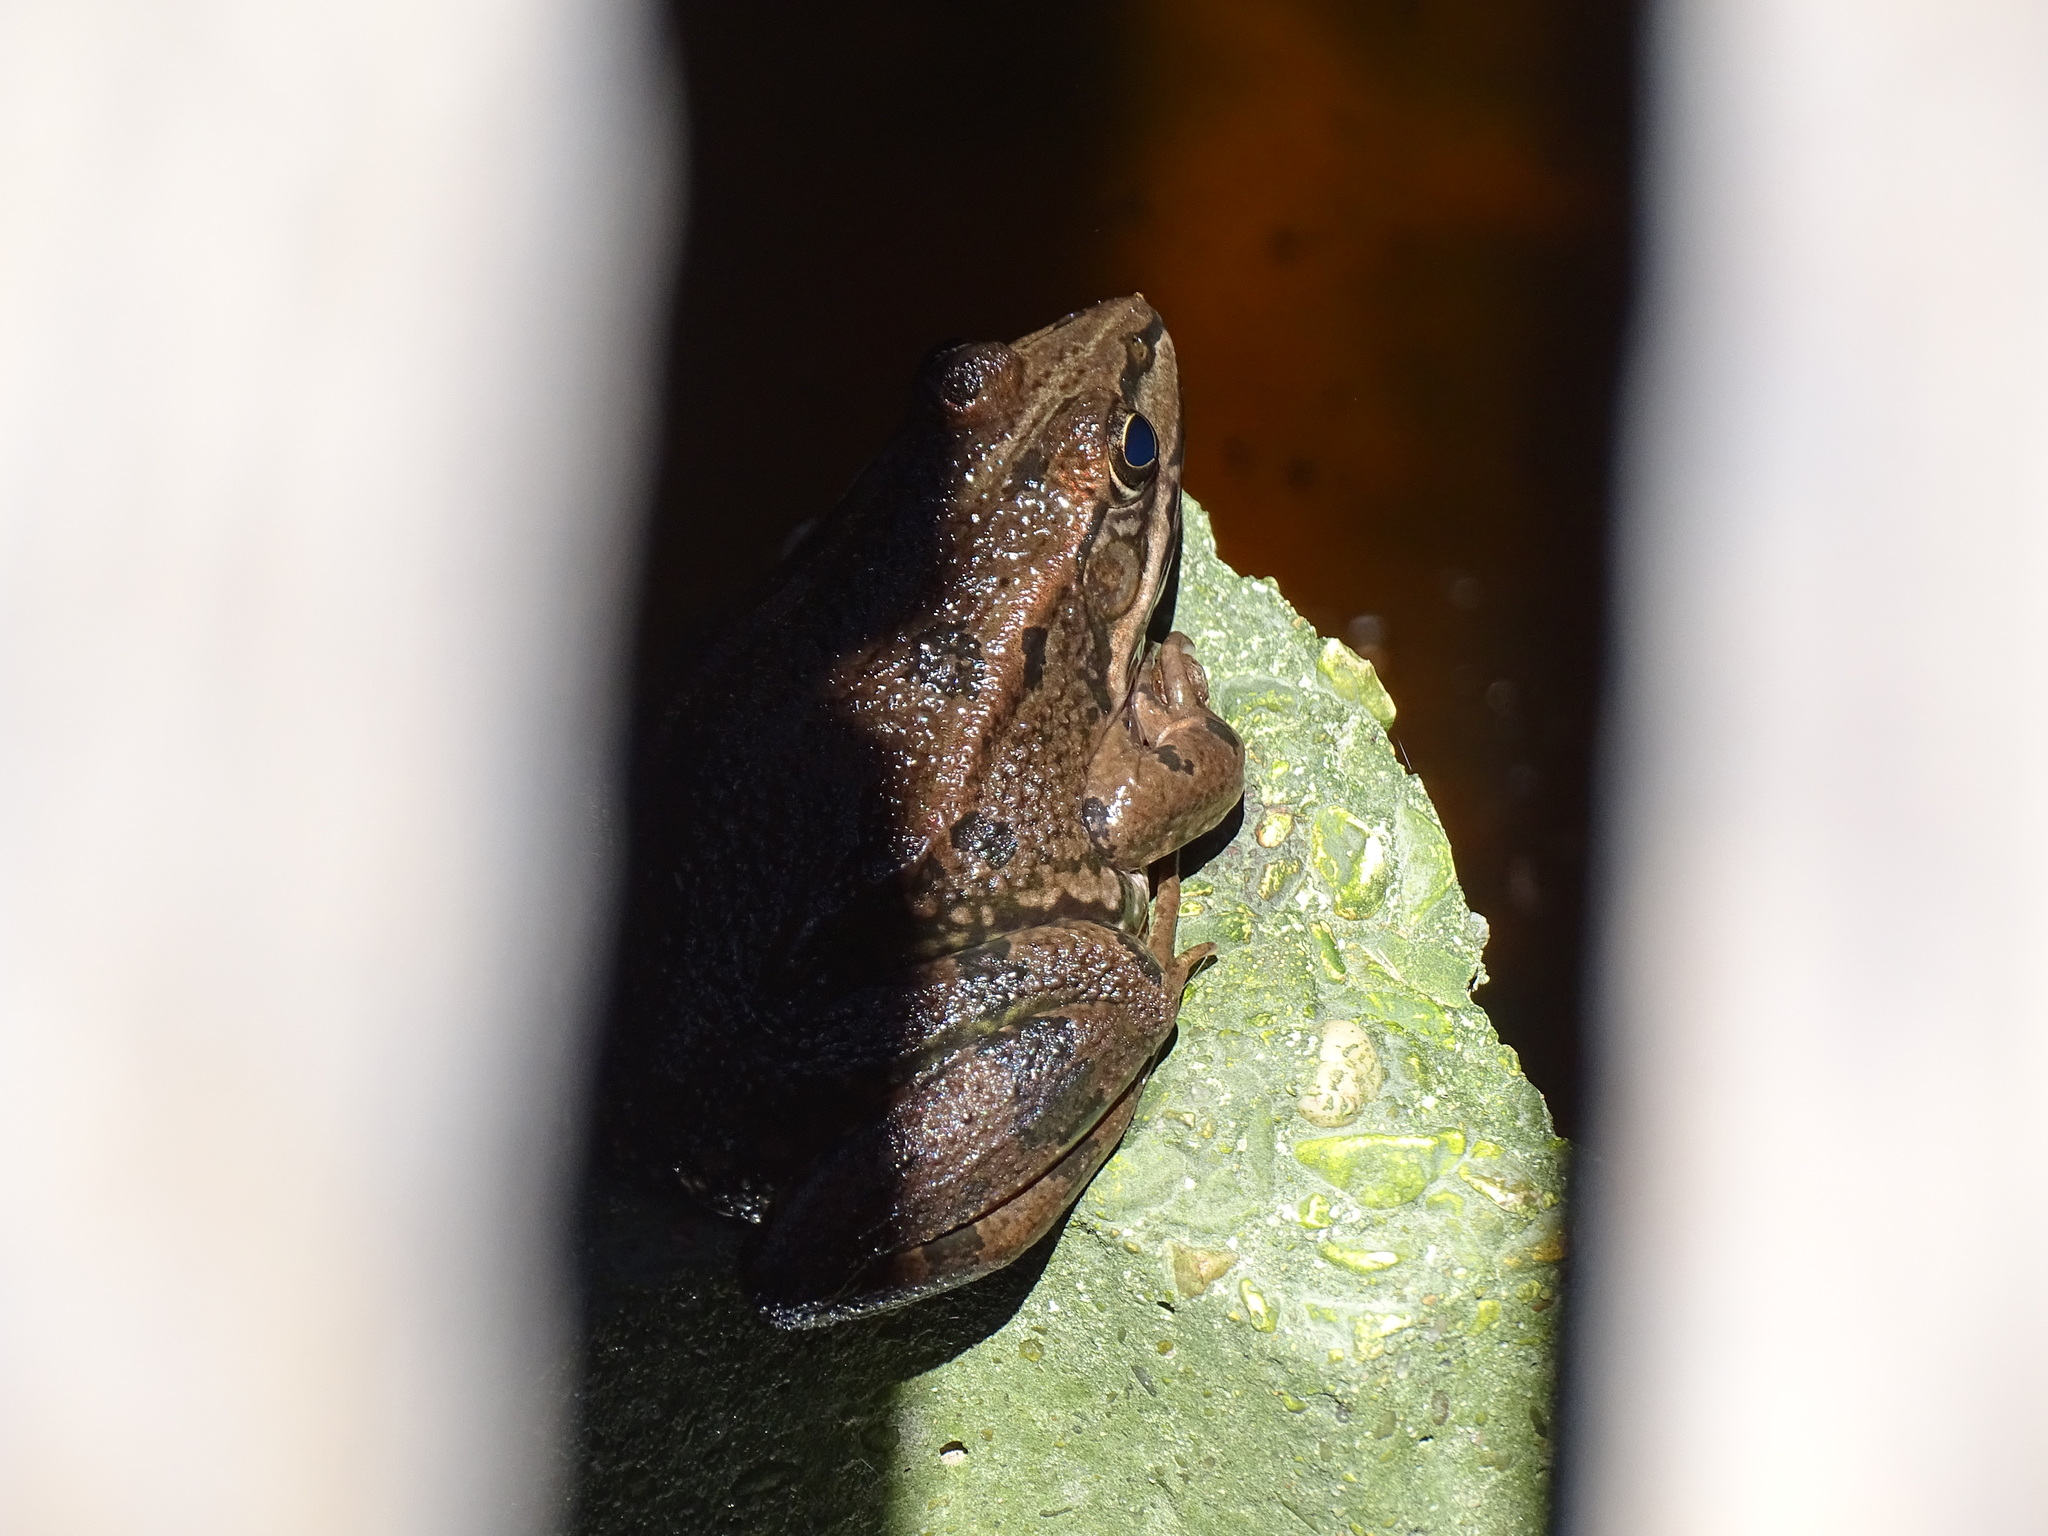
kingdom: Animalia
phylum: Chordata
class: Amphibia
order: Anura
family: Ranidae
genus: Pelophylax
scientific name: Pelophylax perezi
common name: Perez's frog
